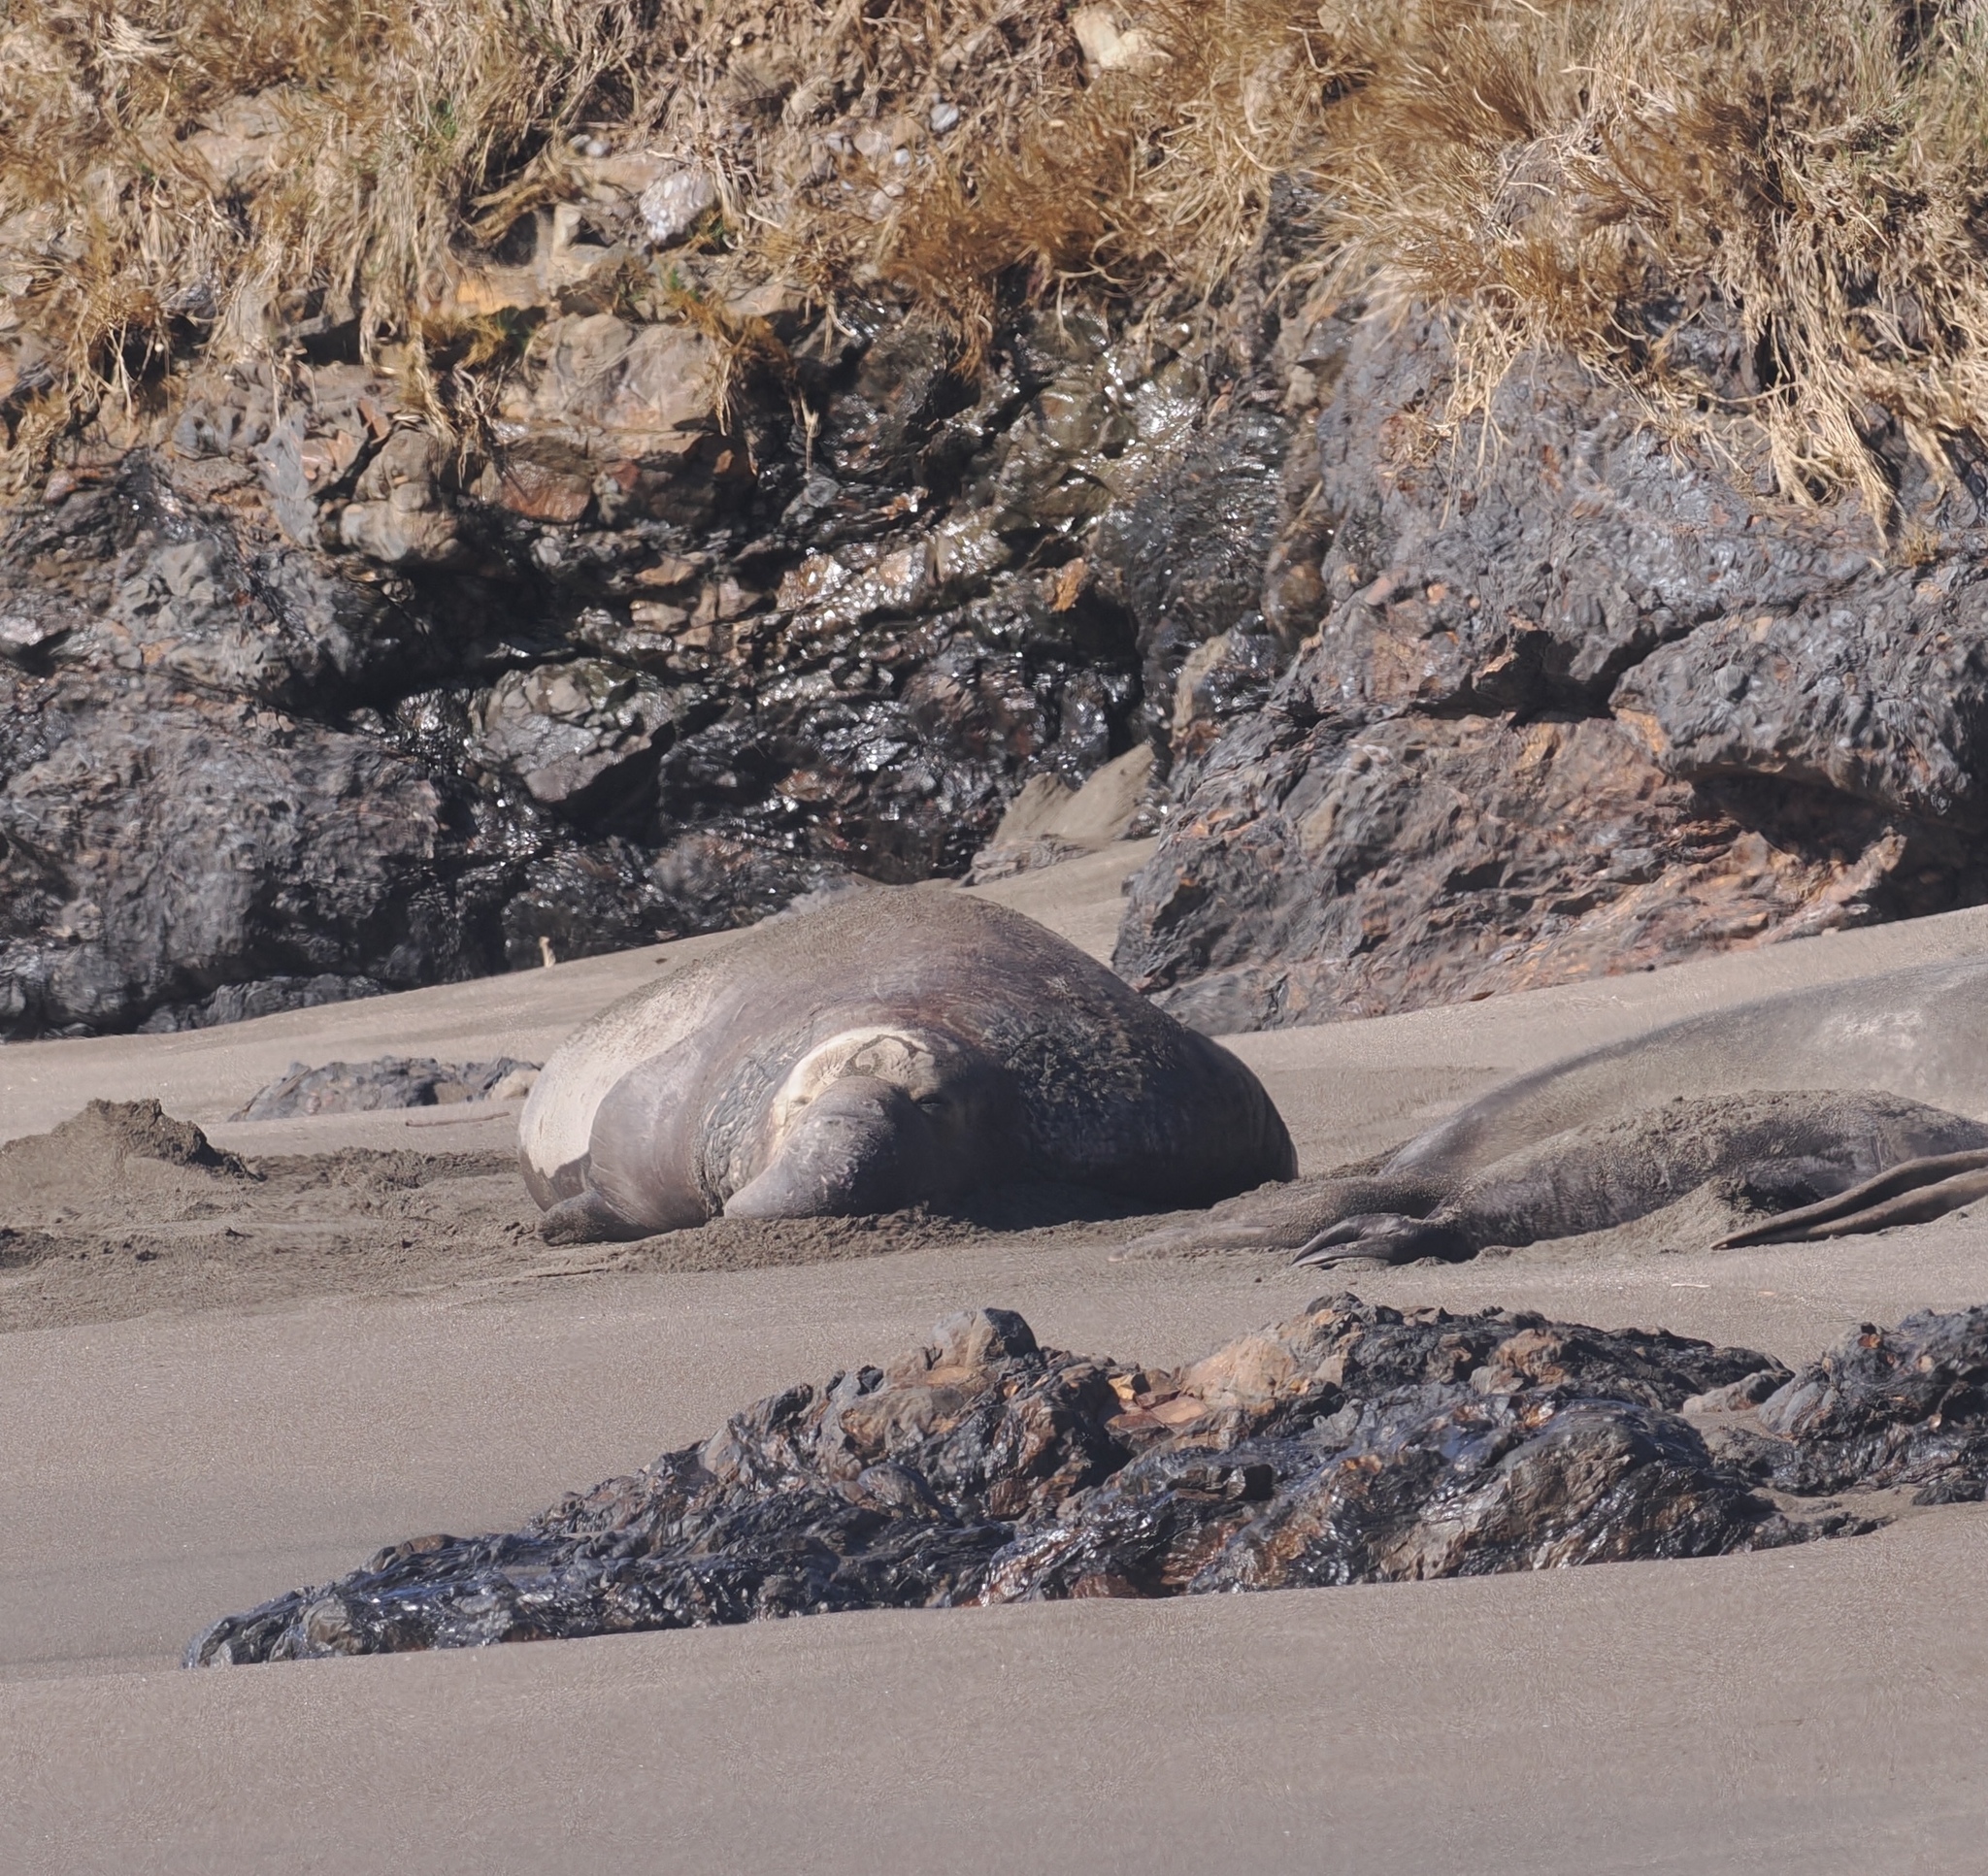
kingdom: Animalia
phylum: Chordata
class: Mammalia
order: Carnivora
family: Phocidae
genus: Mirounga
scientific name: Mirounga angustirostris
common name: Northern elephant seal
